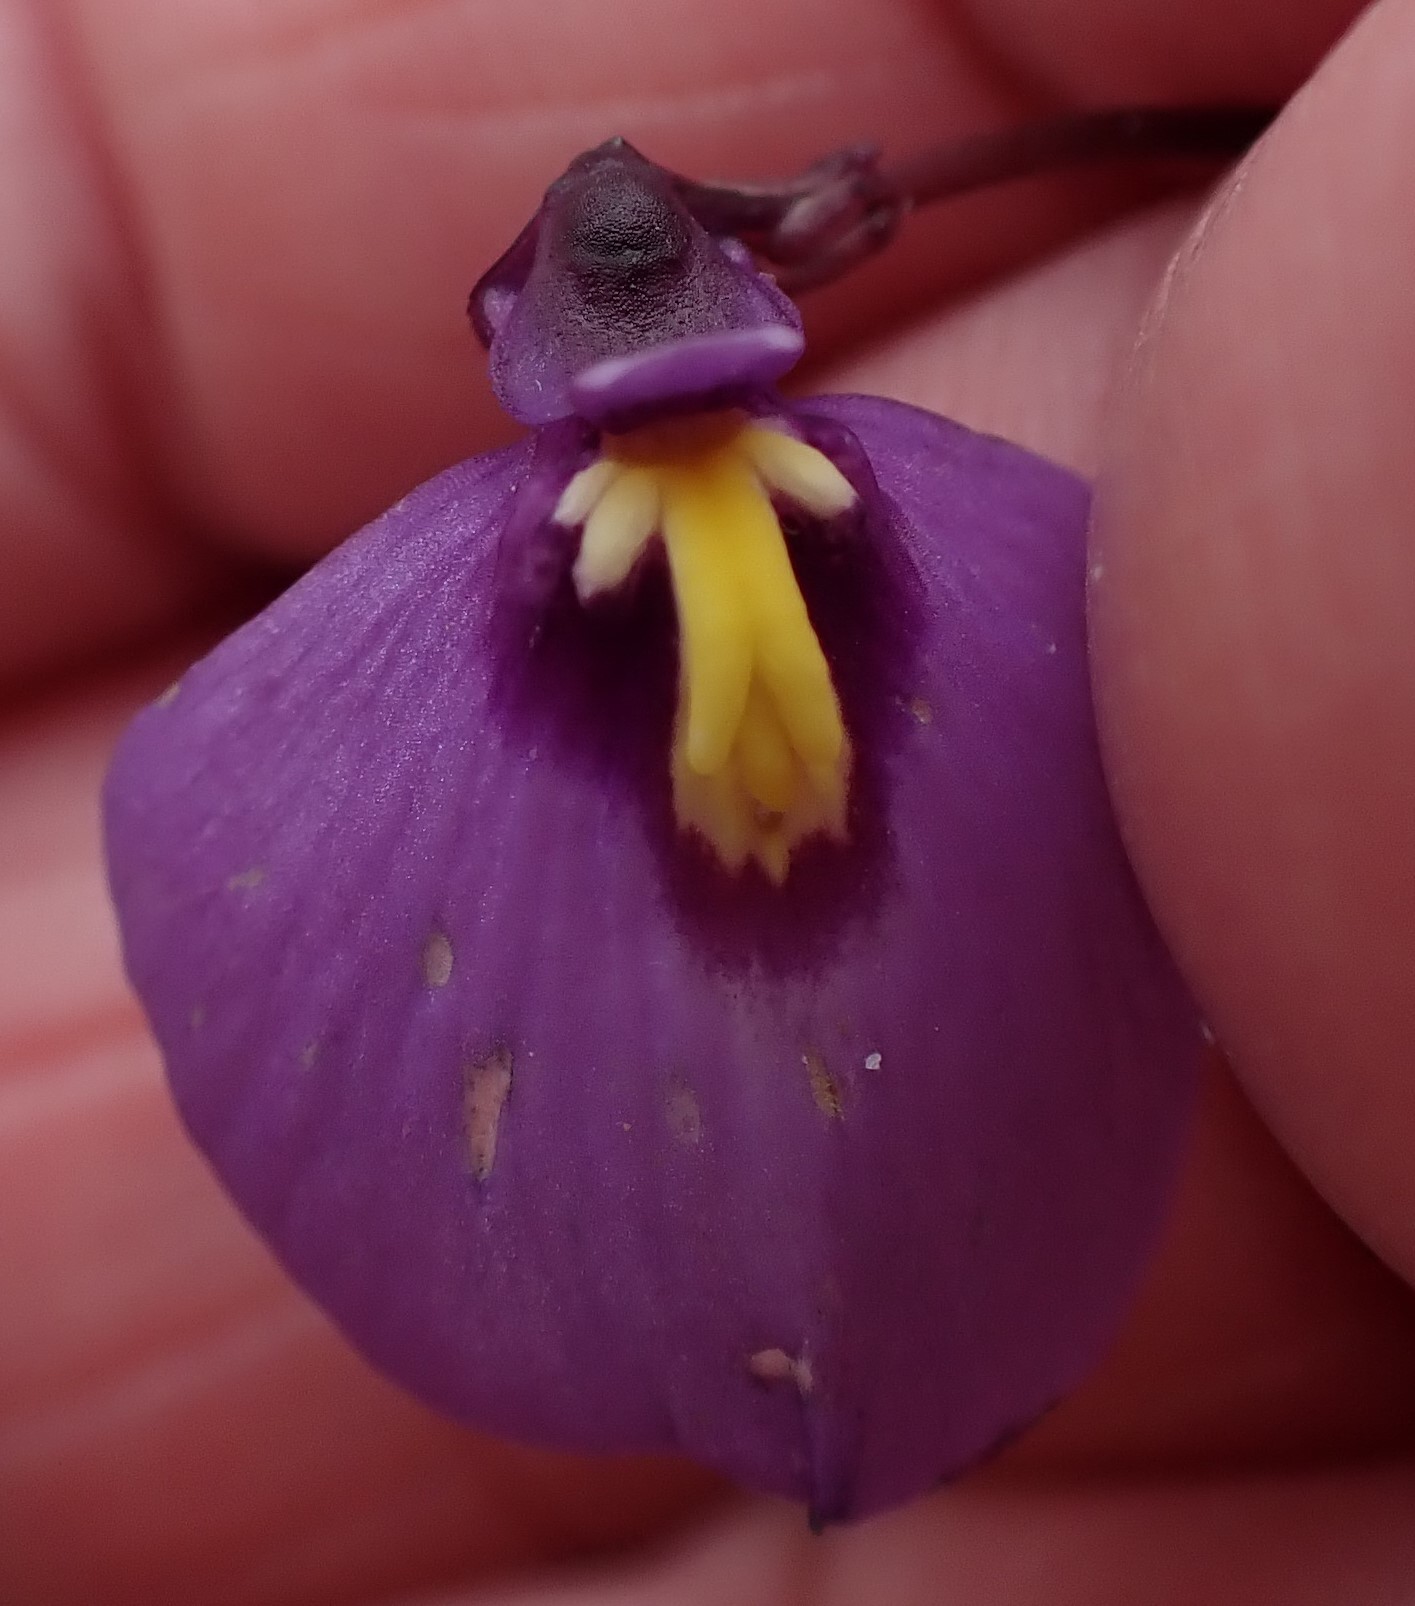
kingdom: Plantae
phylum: Tracheophyta
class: Magnoliopsida
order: Lamiales
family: Lentibulariaceae
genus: Utricularia
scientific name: Utricularia dichotoma
